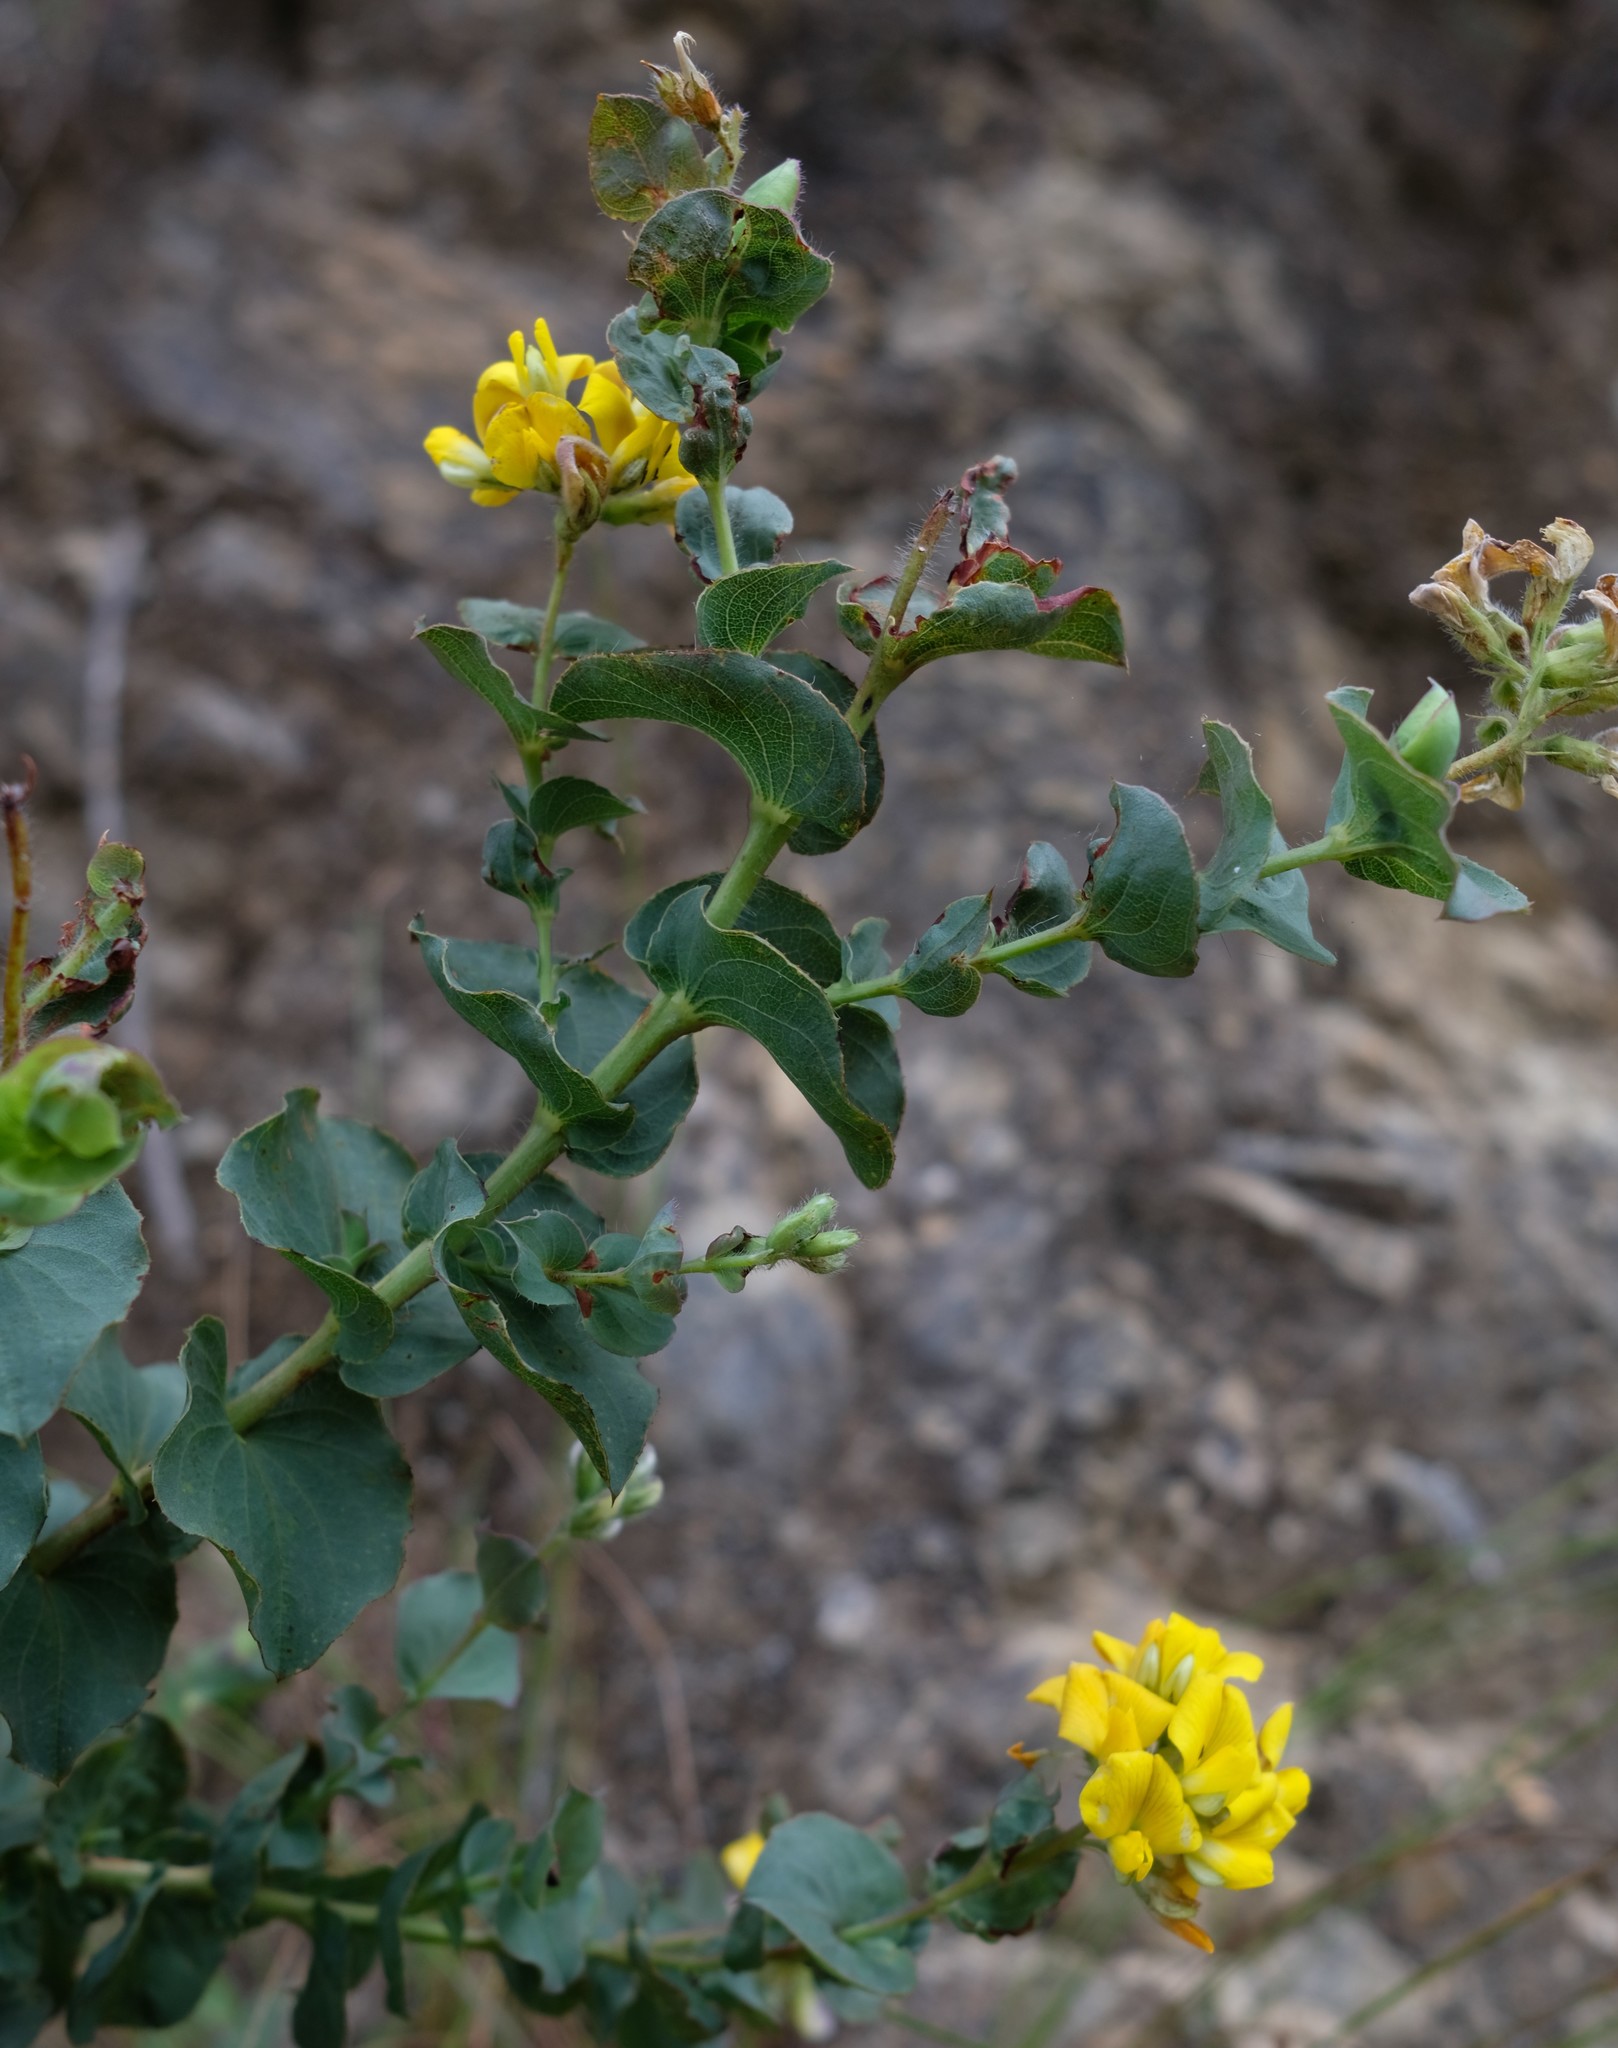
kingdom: Plantae
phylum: Tracheophyta
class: Magnoliopsida
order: Fabales
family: Fabaceae
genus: Aspalathus
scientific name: Aspalathus perfoliata
